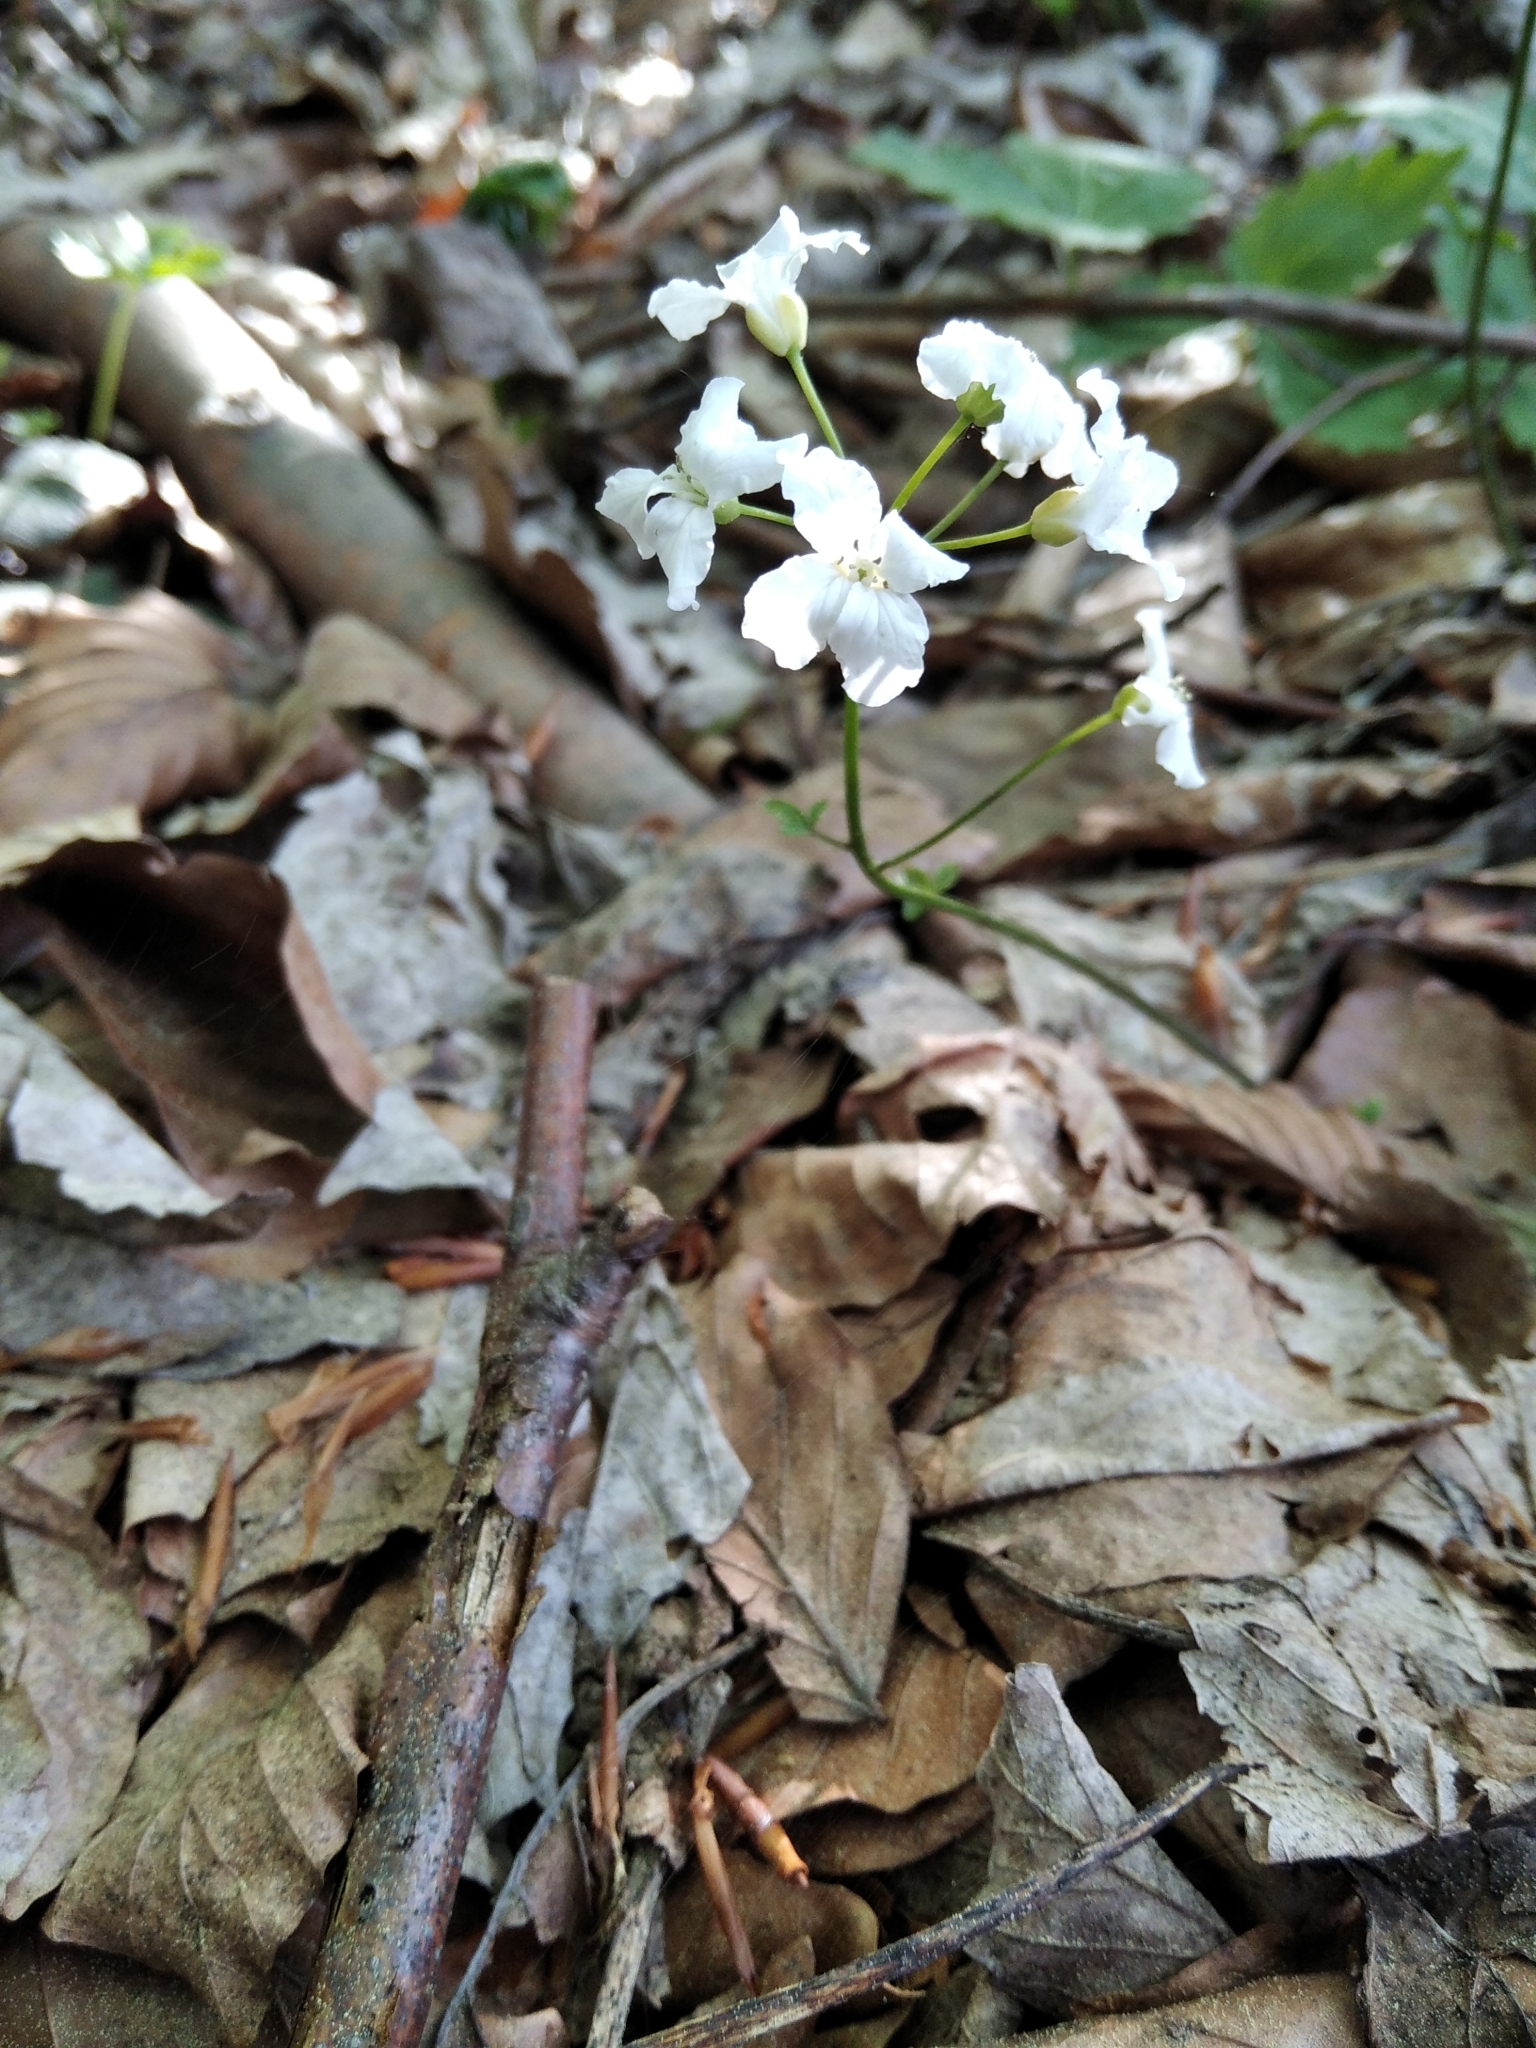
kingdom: Plantae
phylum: Tracheophyta
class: Magnoliopsida
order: Brassicales
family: Brassicaceae
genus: Cardamine
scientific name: Cardamine trifolia
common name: Trefoil cress
